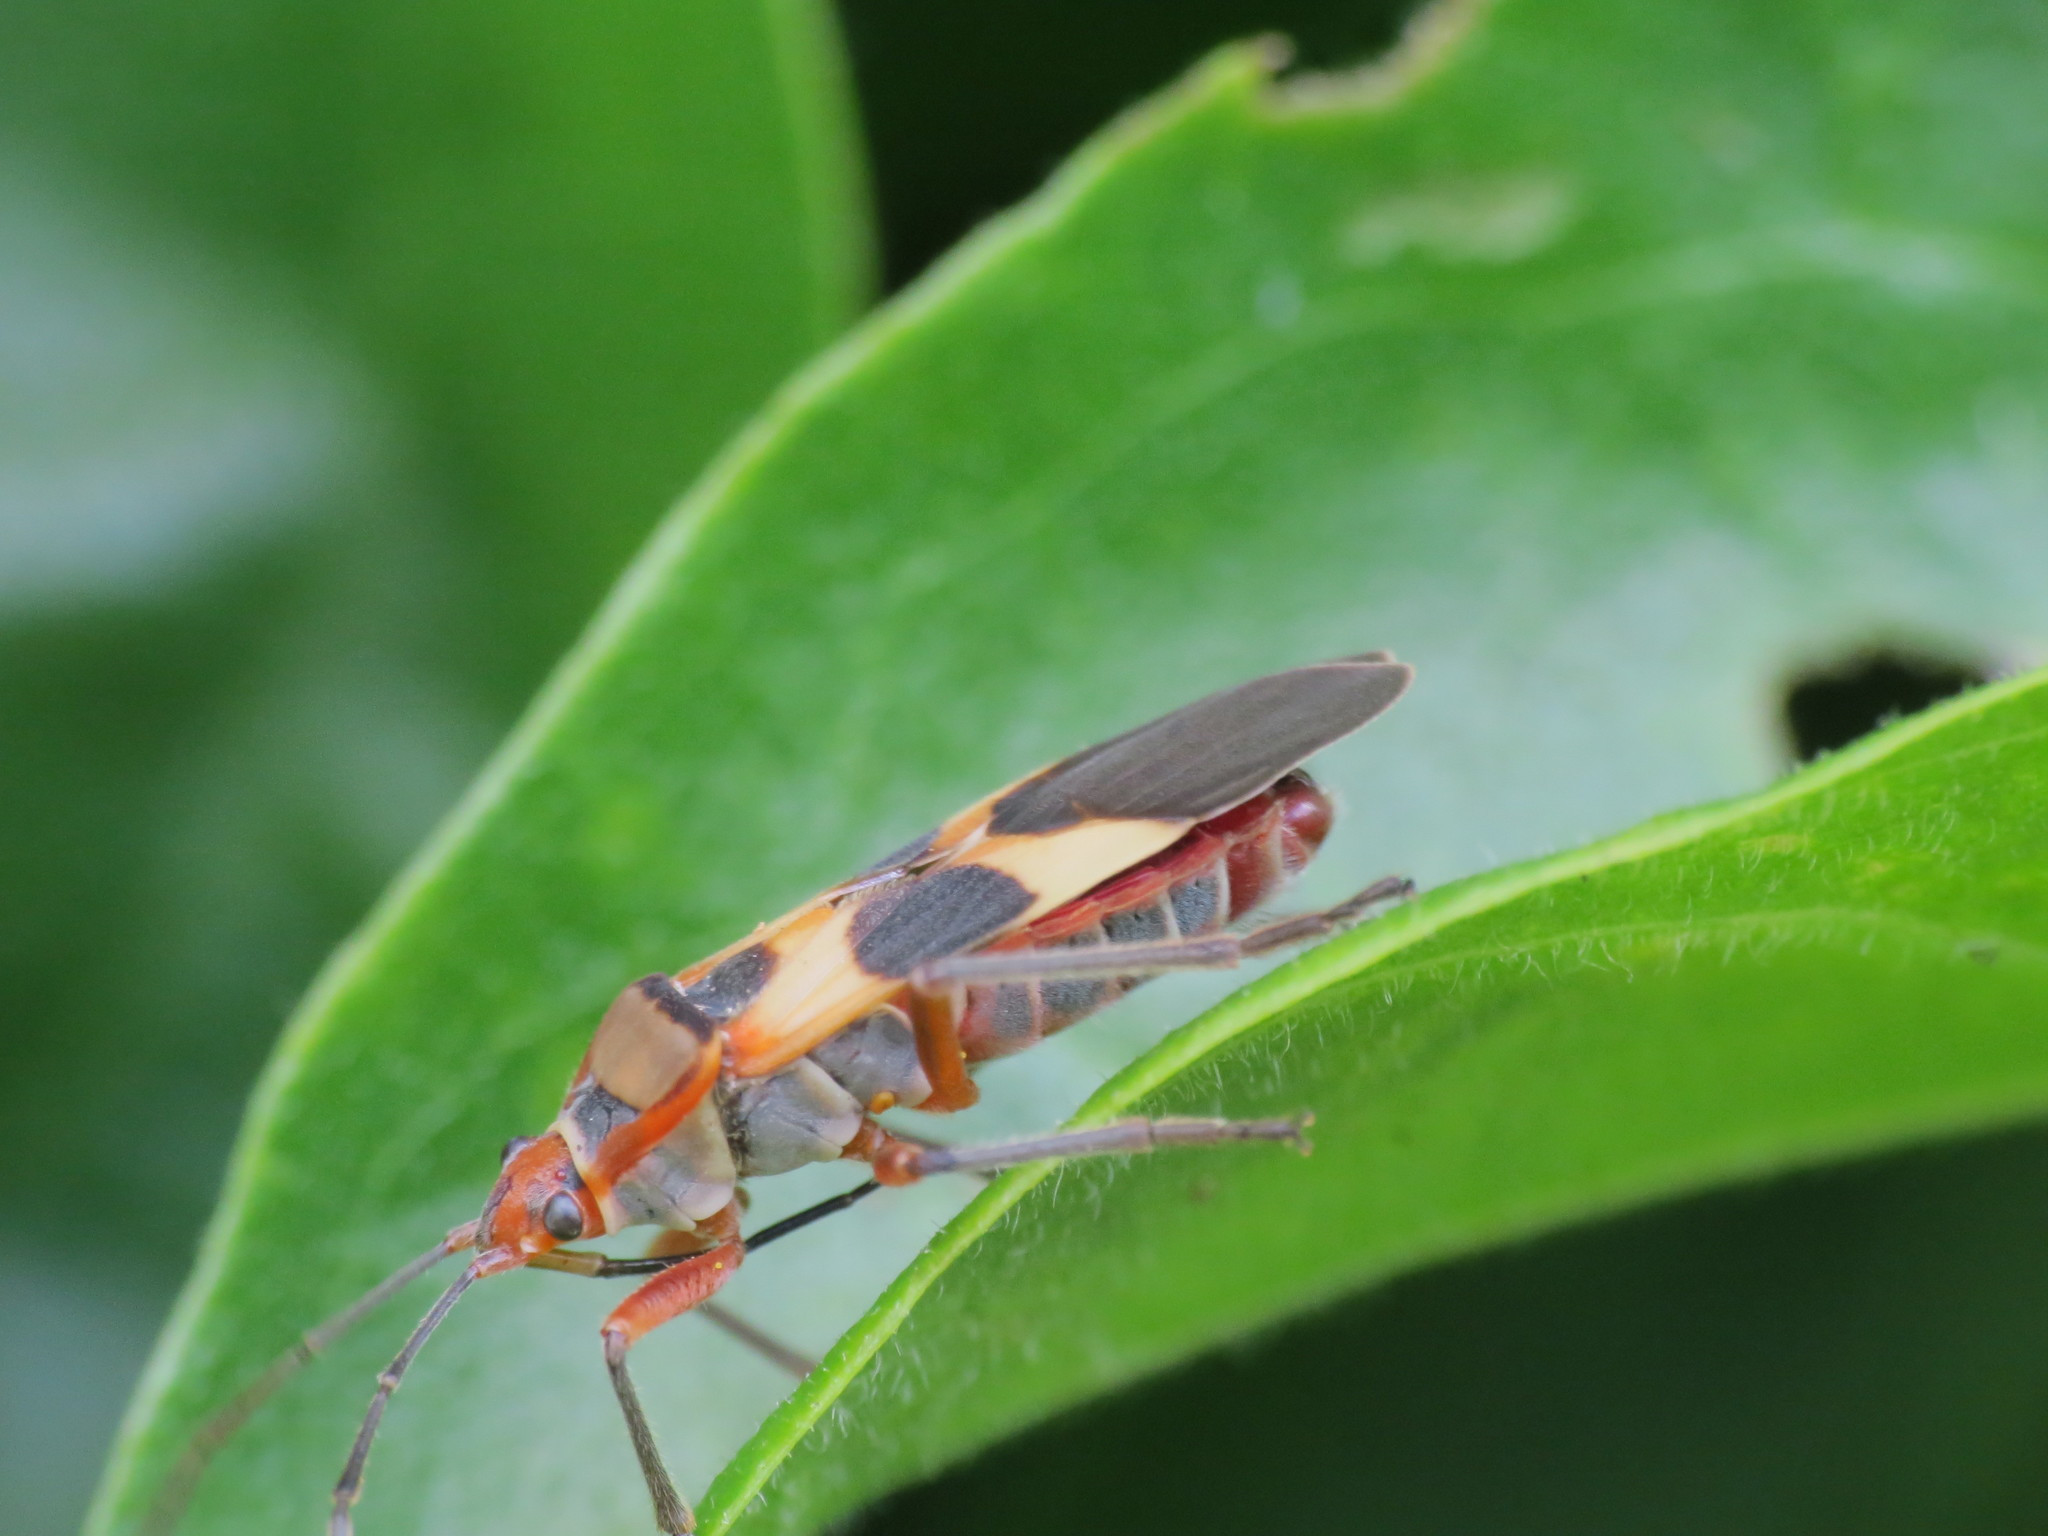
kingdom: Animalia
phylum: Arthropoda
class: Insecta
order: Hemiptera
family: Lygaeidae
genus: Oncopeltus
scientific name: Oncopeltus unifasciatellus
